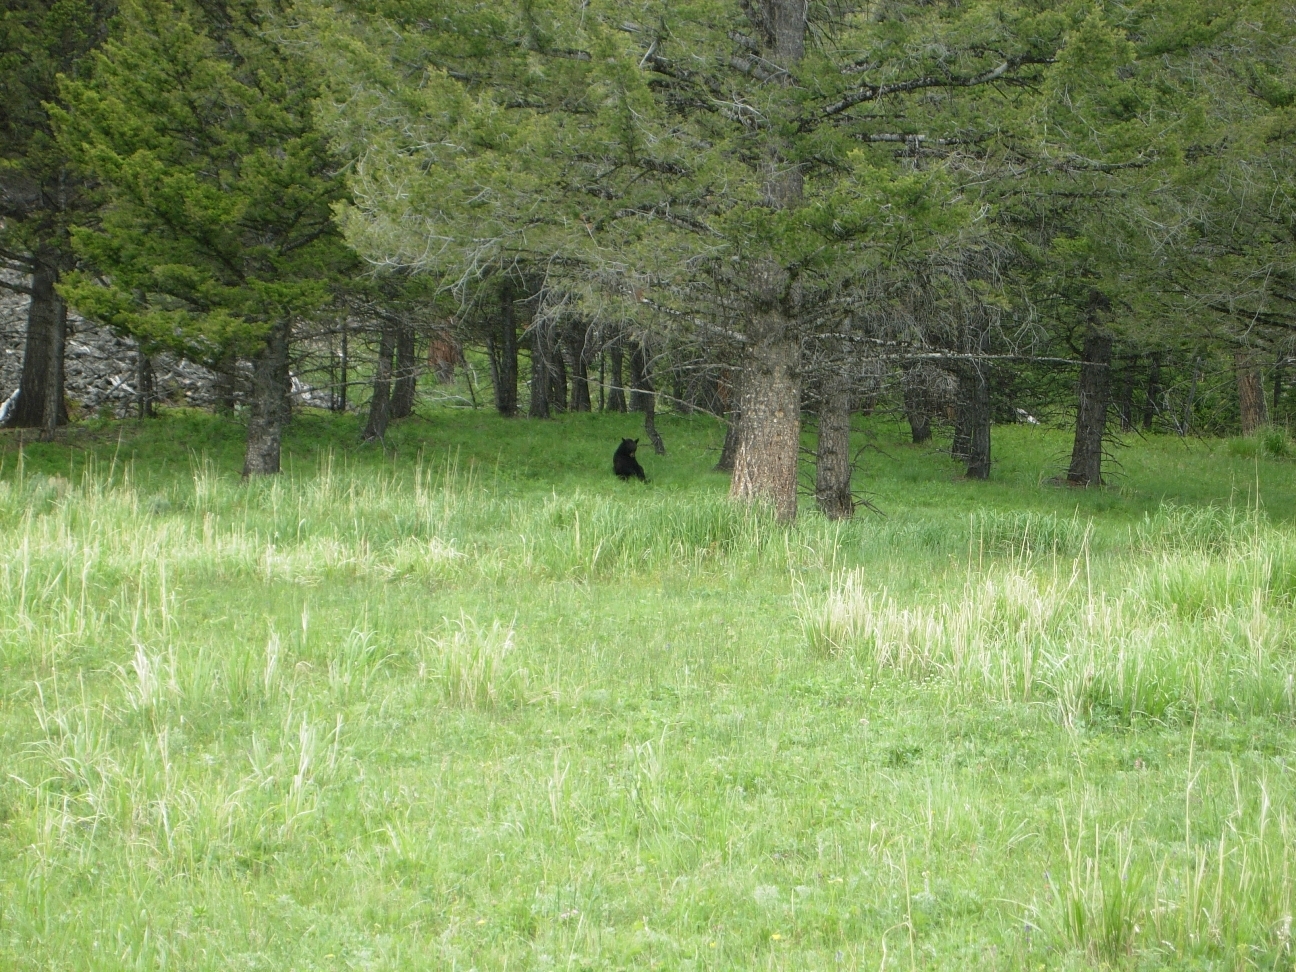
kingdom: Animalia
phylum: Chordata
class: Mammalia
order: Carnivora
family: Ursidae
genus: Ursus
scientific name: Ursus americanus
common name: American black bear
